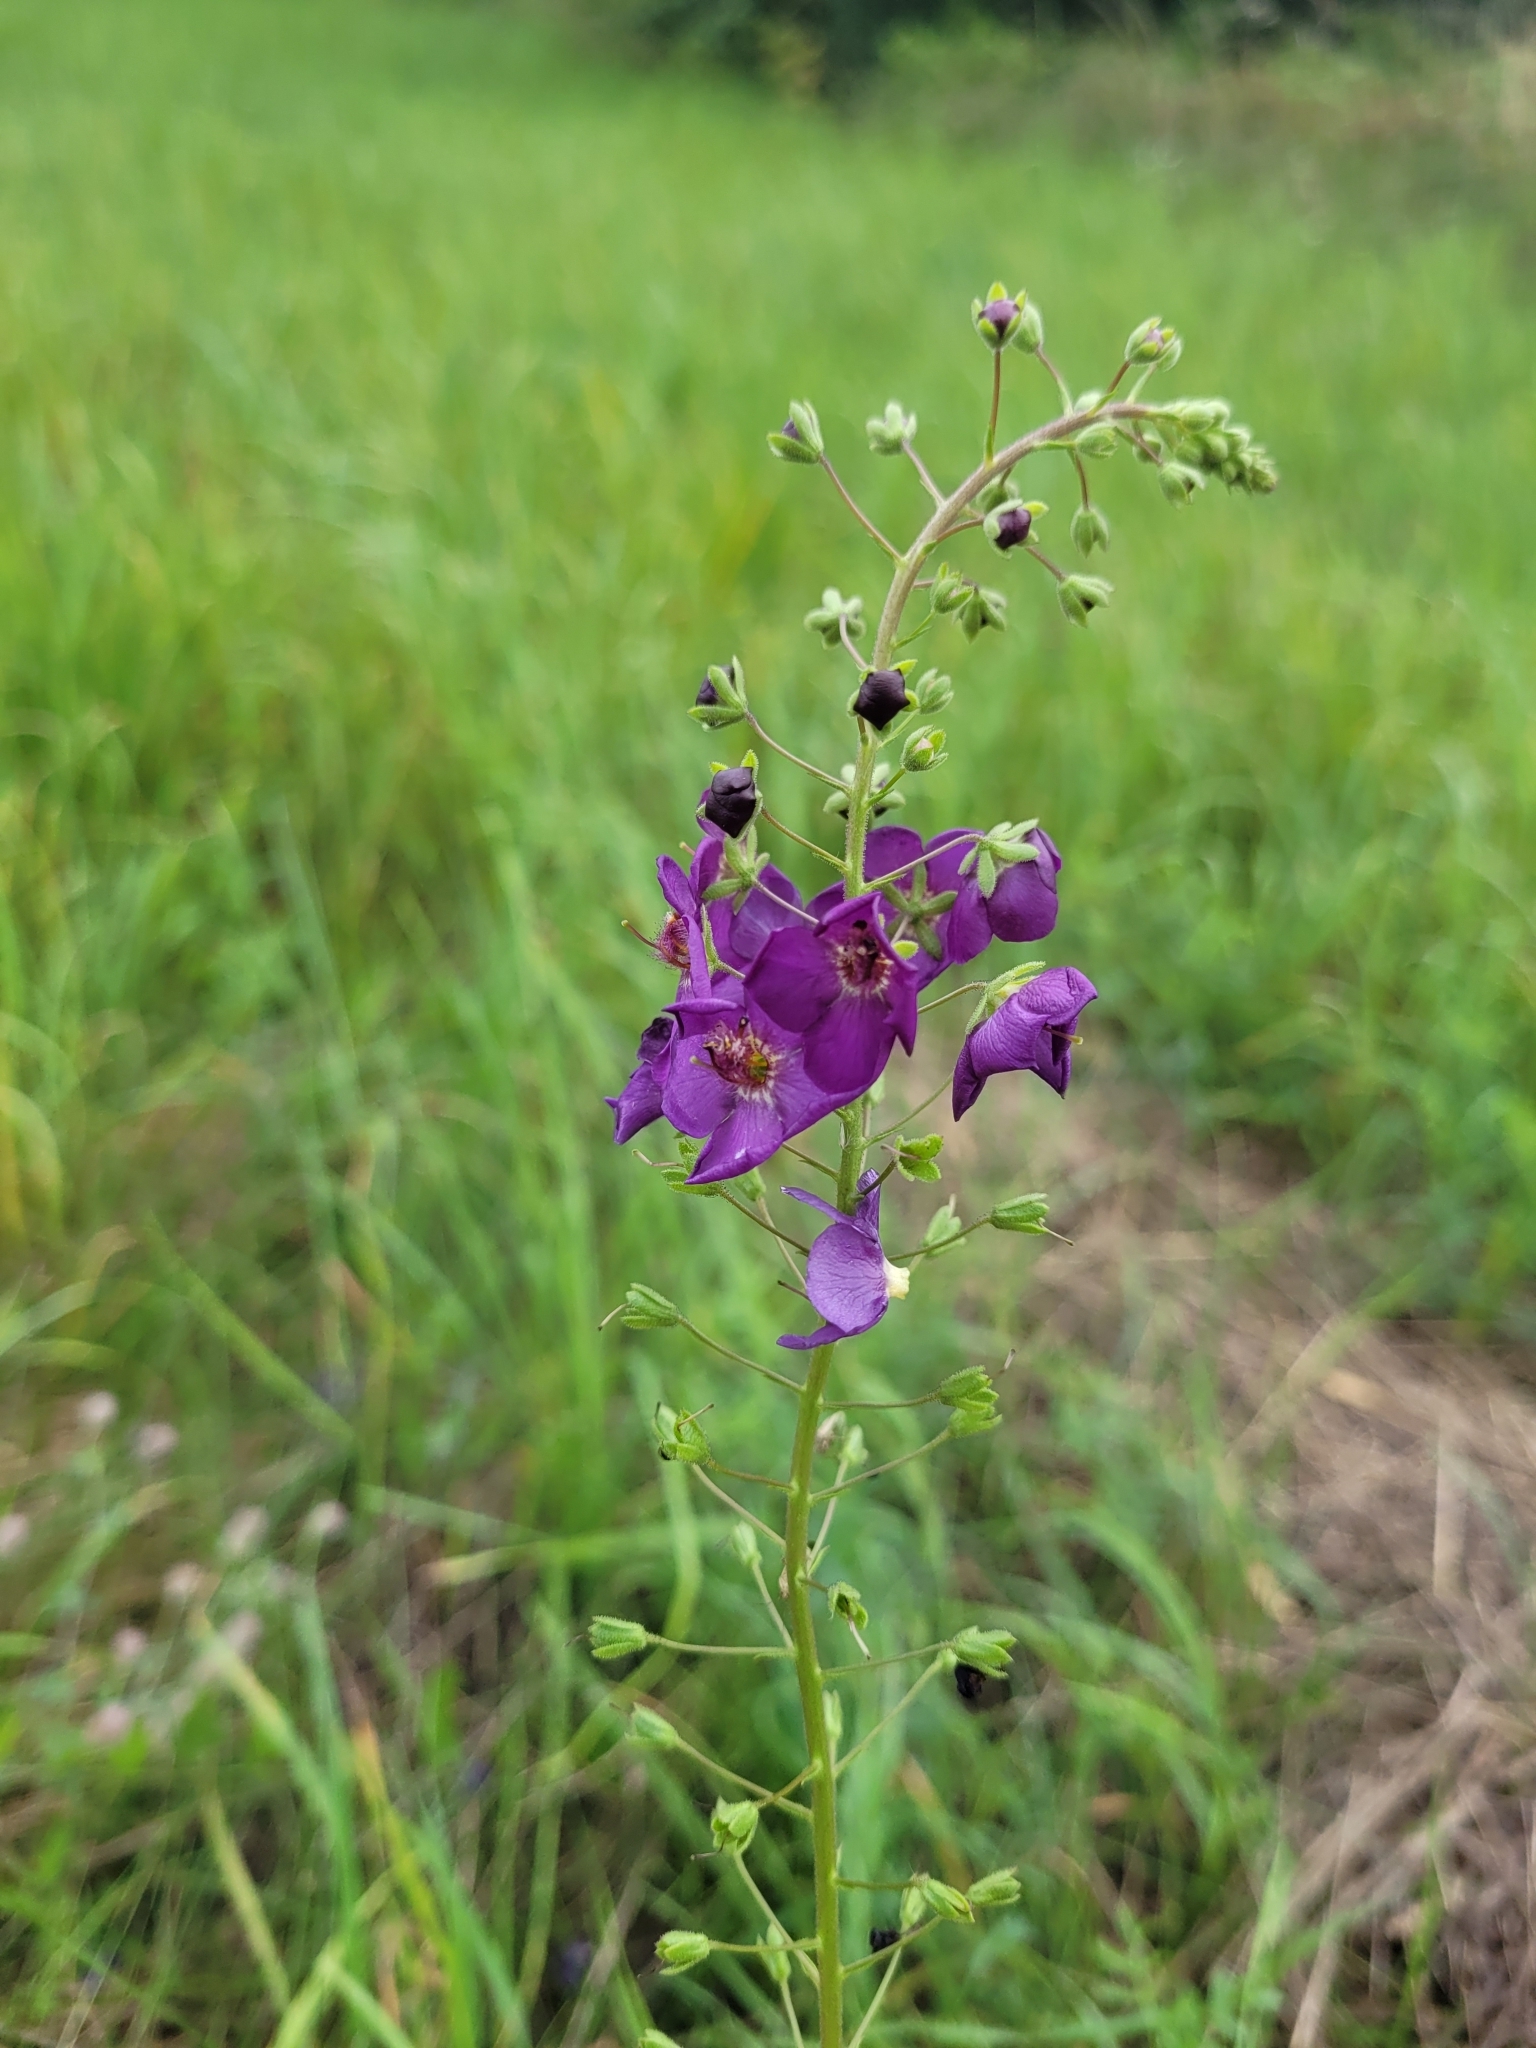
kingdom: Plantae
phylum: Tracheophyta
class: Magnoliopsida
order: Lamiales
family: Scrophulariaceae
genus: Verbascum
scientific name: Verbascum phoeniceum
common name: Purple mullein
